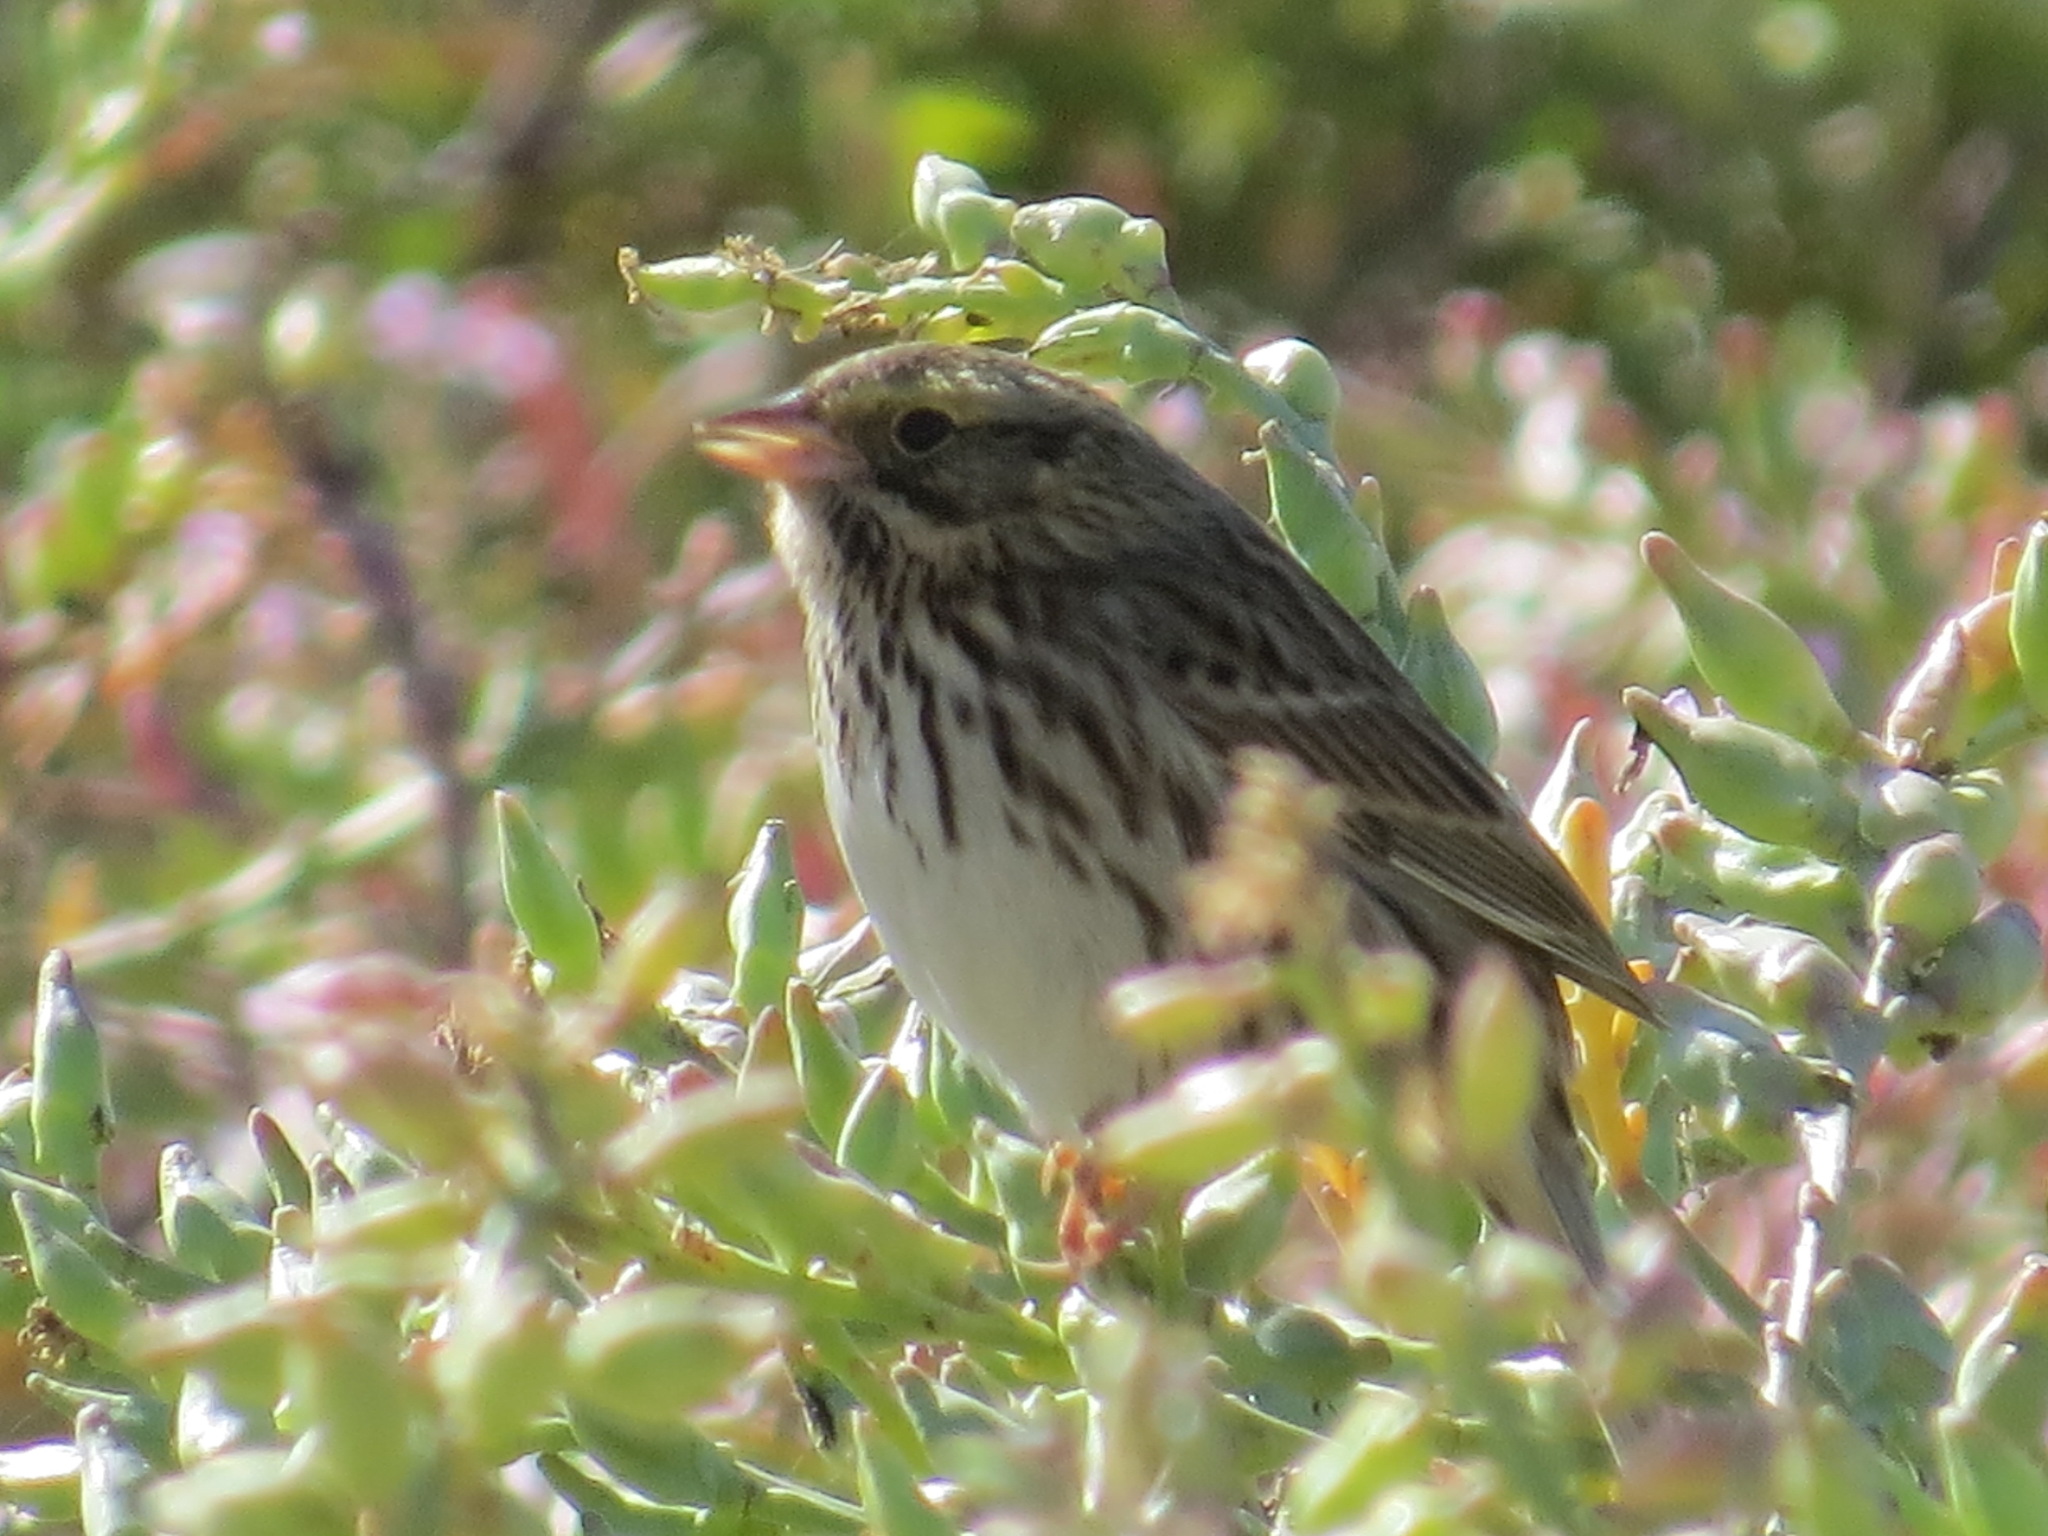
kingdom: Animalia
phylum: Chordata
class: Aves
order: Passeriformes
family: Passerellidae
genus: Passerculus
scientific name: Passerculus sandwichensis
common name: Savannah sparrow
